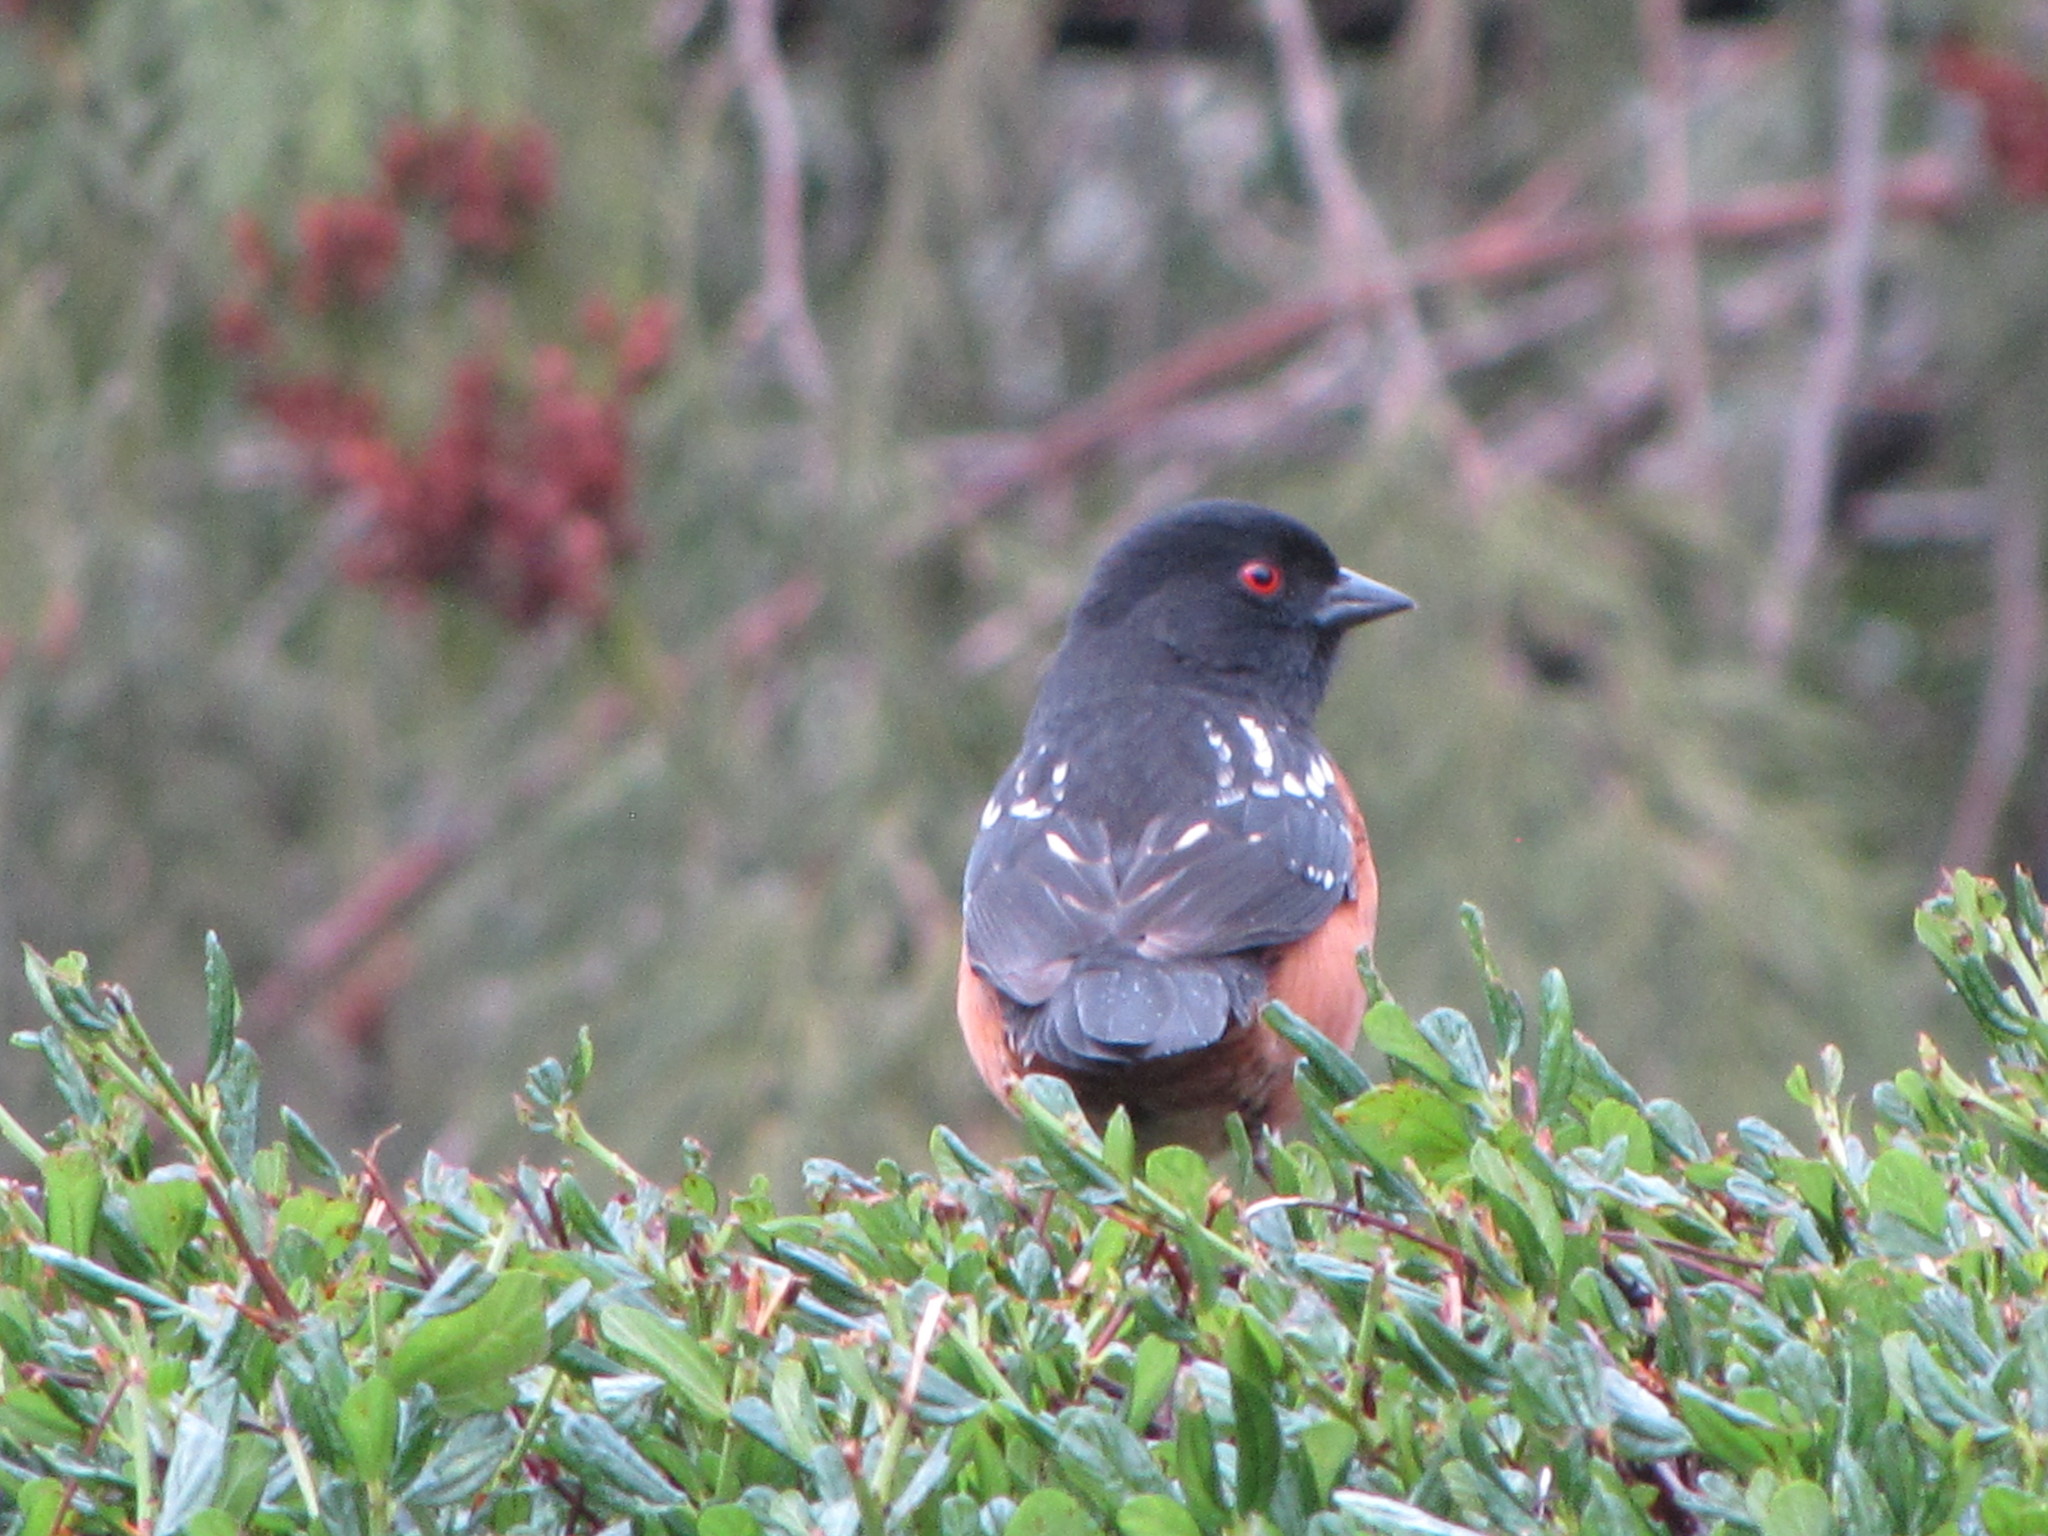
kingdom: Animalia
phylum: Chordata
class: Aves
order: Passeriformes
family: Passerellidae
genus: Pipilo
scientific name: Pipilo maculatus
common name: Spotted towhee
